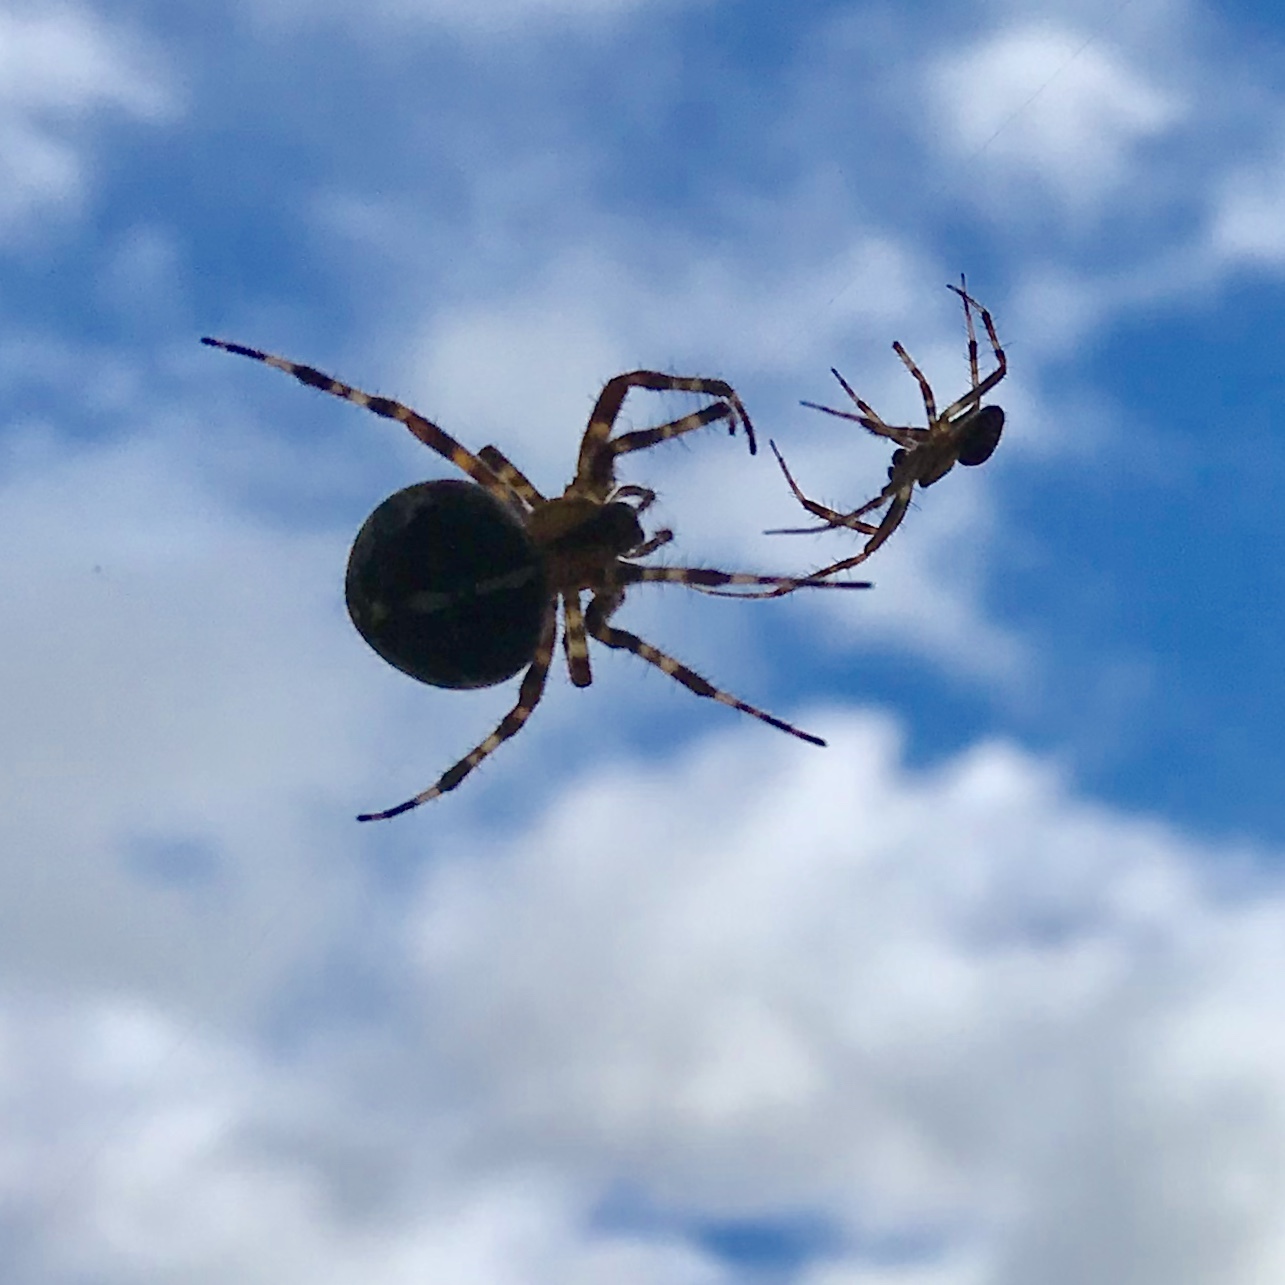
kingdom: Animalia
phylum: Arthropoda
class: Arachnida
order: Araneae
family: Araneidae
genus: Araneus
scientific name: Araneus diadematus
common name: Cross orbweaver
